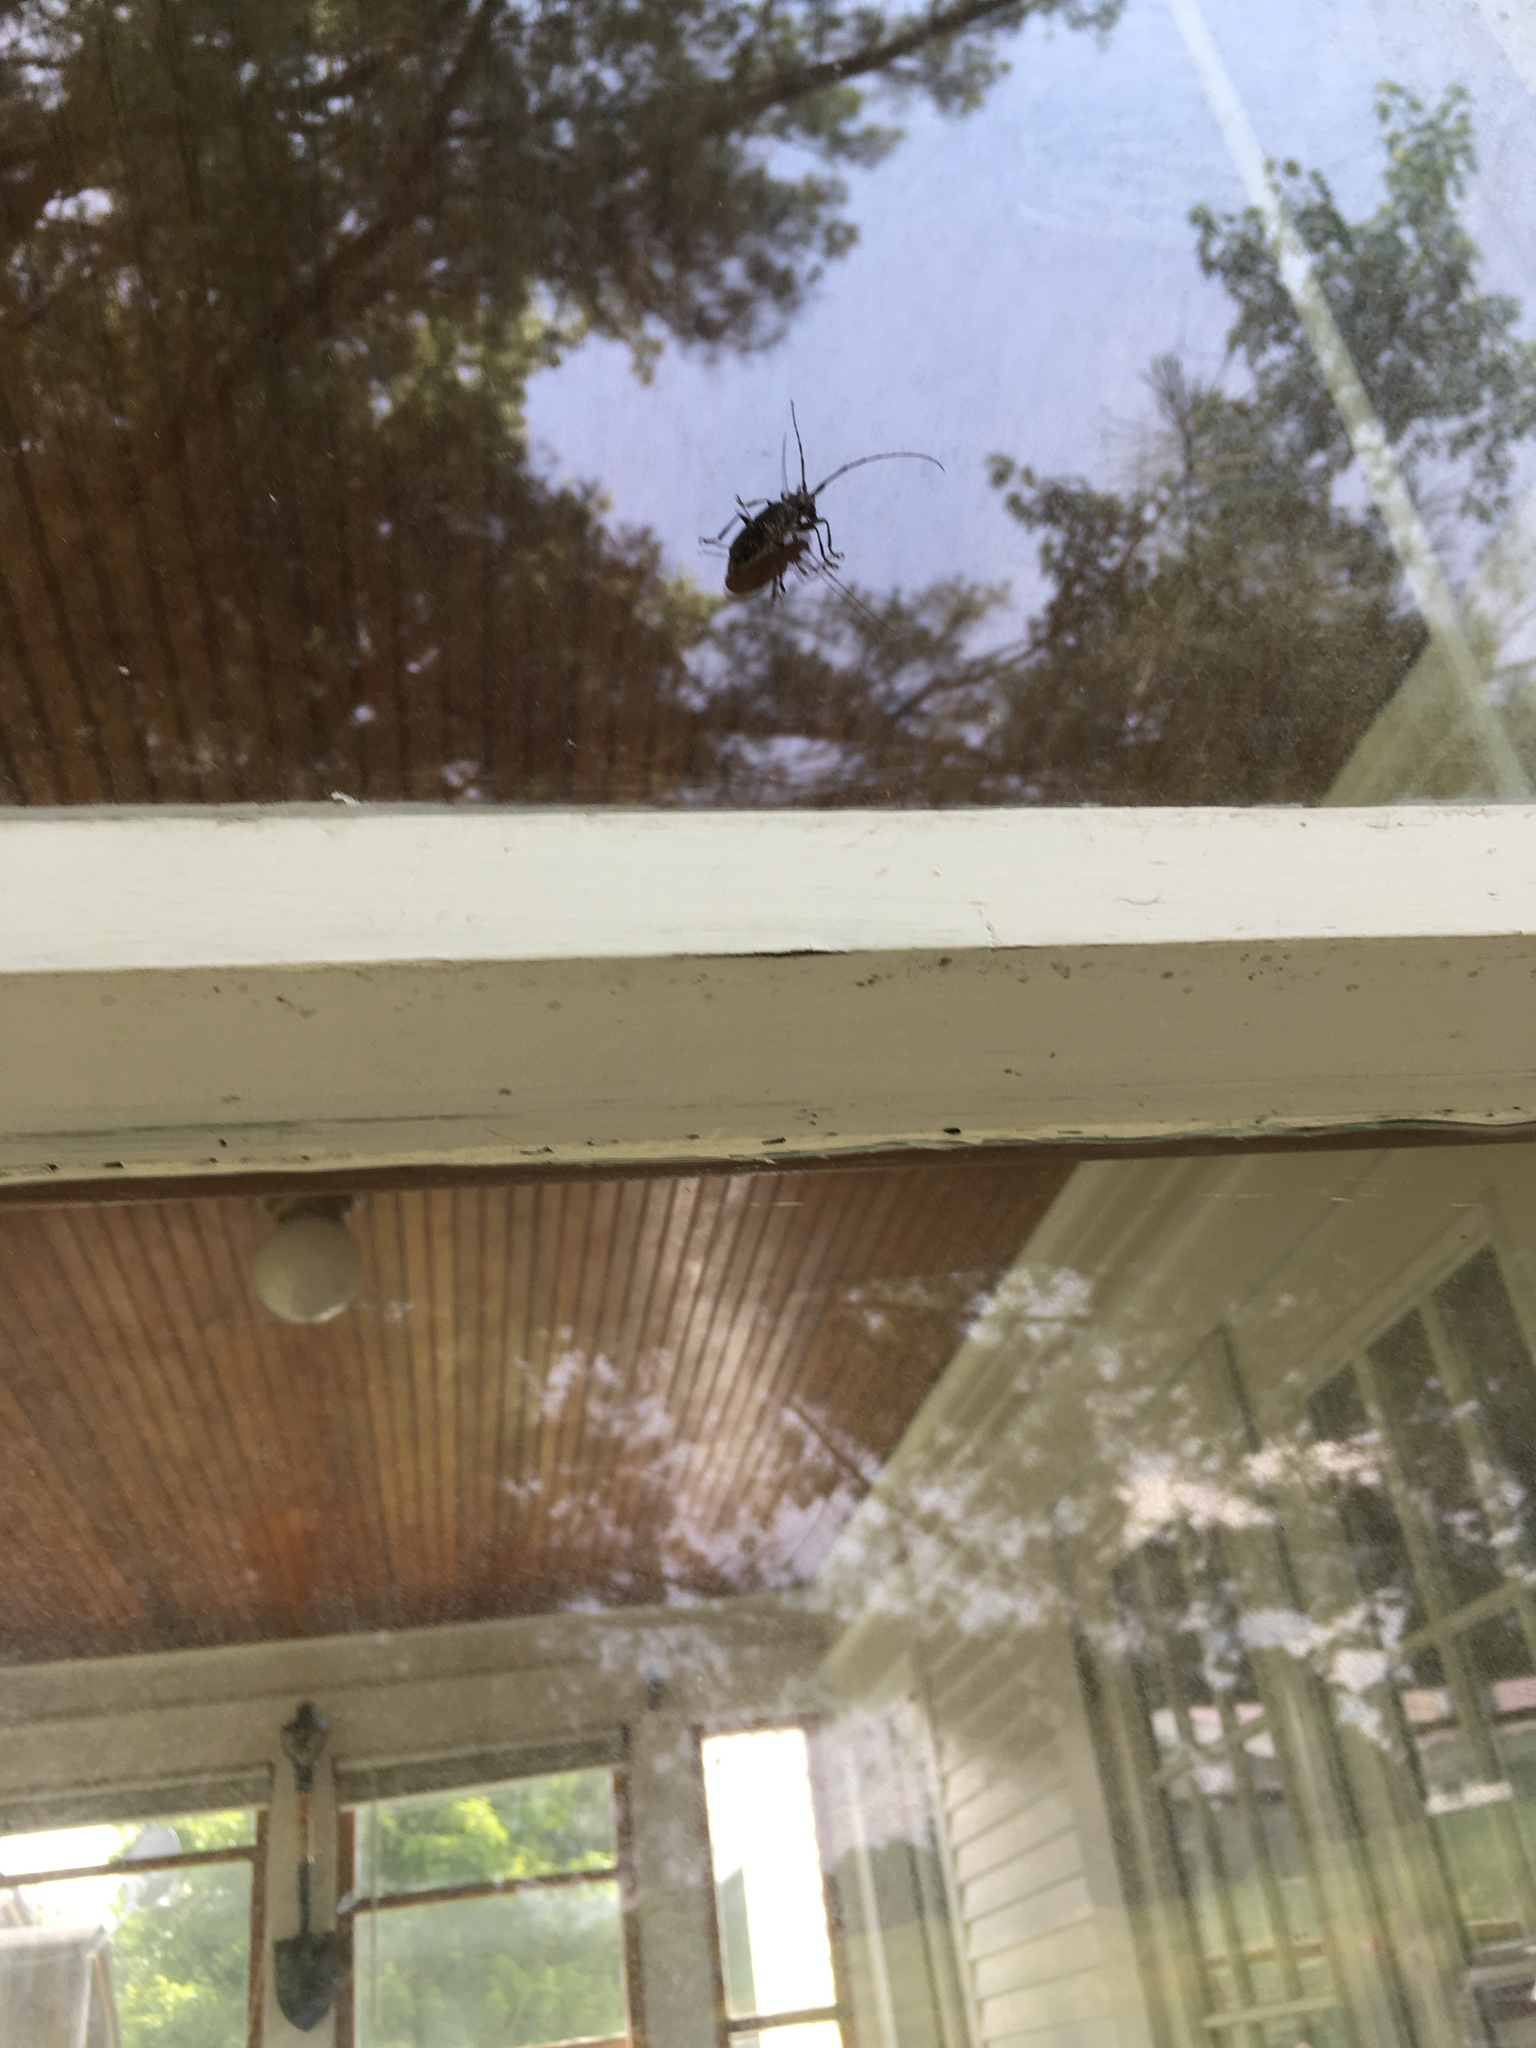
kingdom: Animalia
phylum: Arthropoda
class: Insecta
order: Coleoptera
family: Cerambycidae
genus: Monochamus
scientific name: Monochamus scutellatus
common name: White-spotted sawyer beetle
